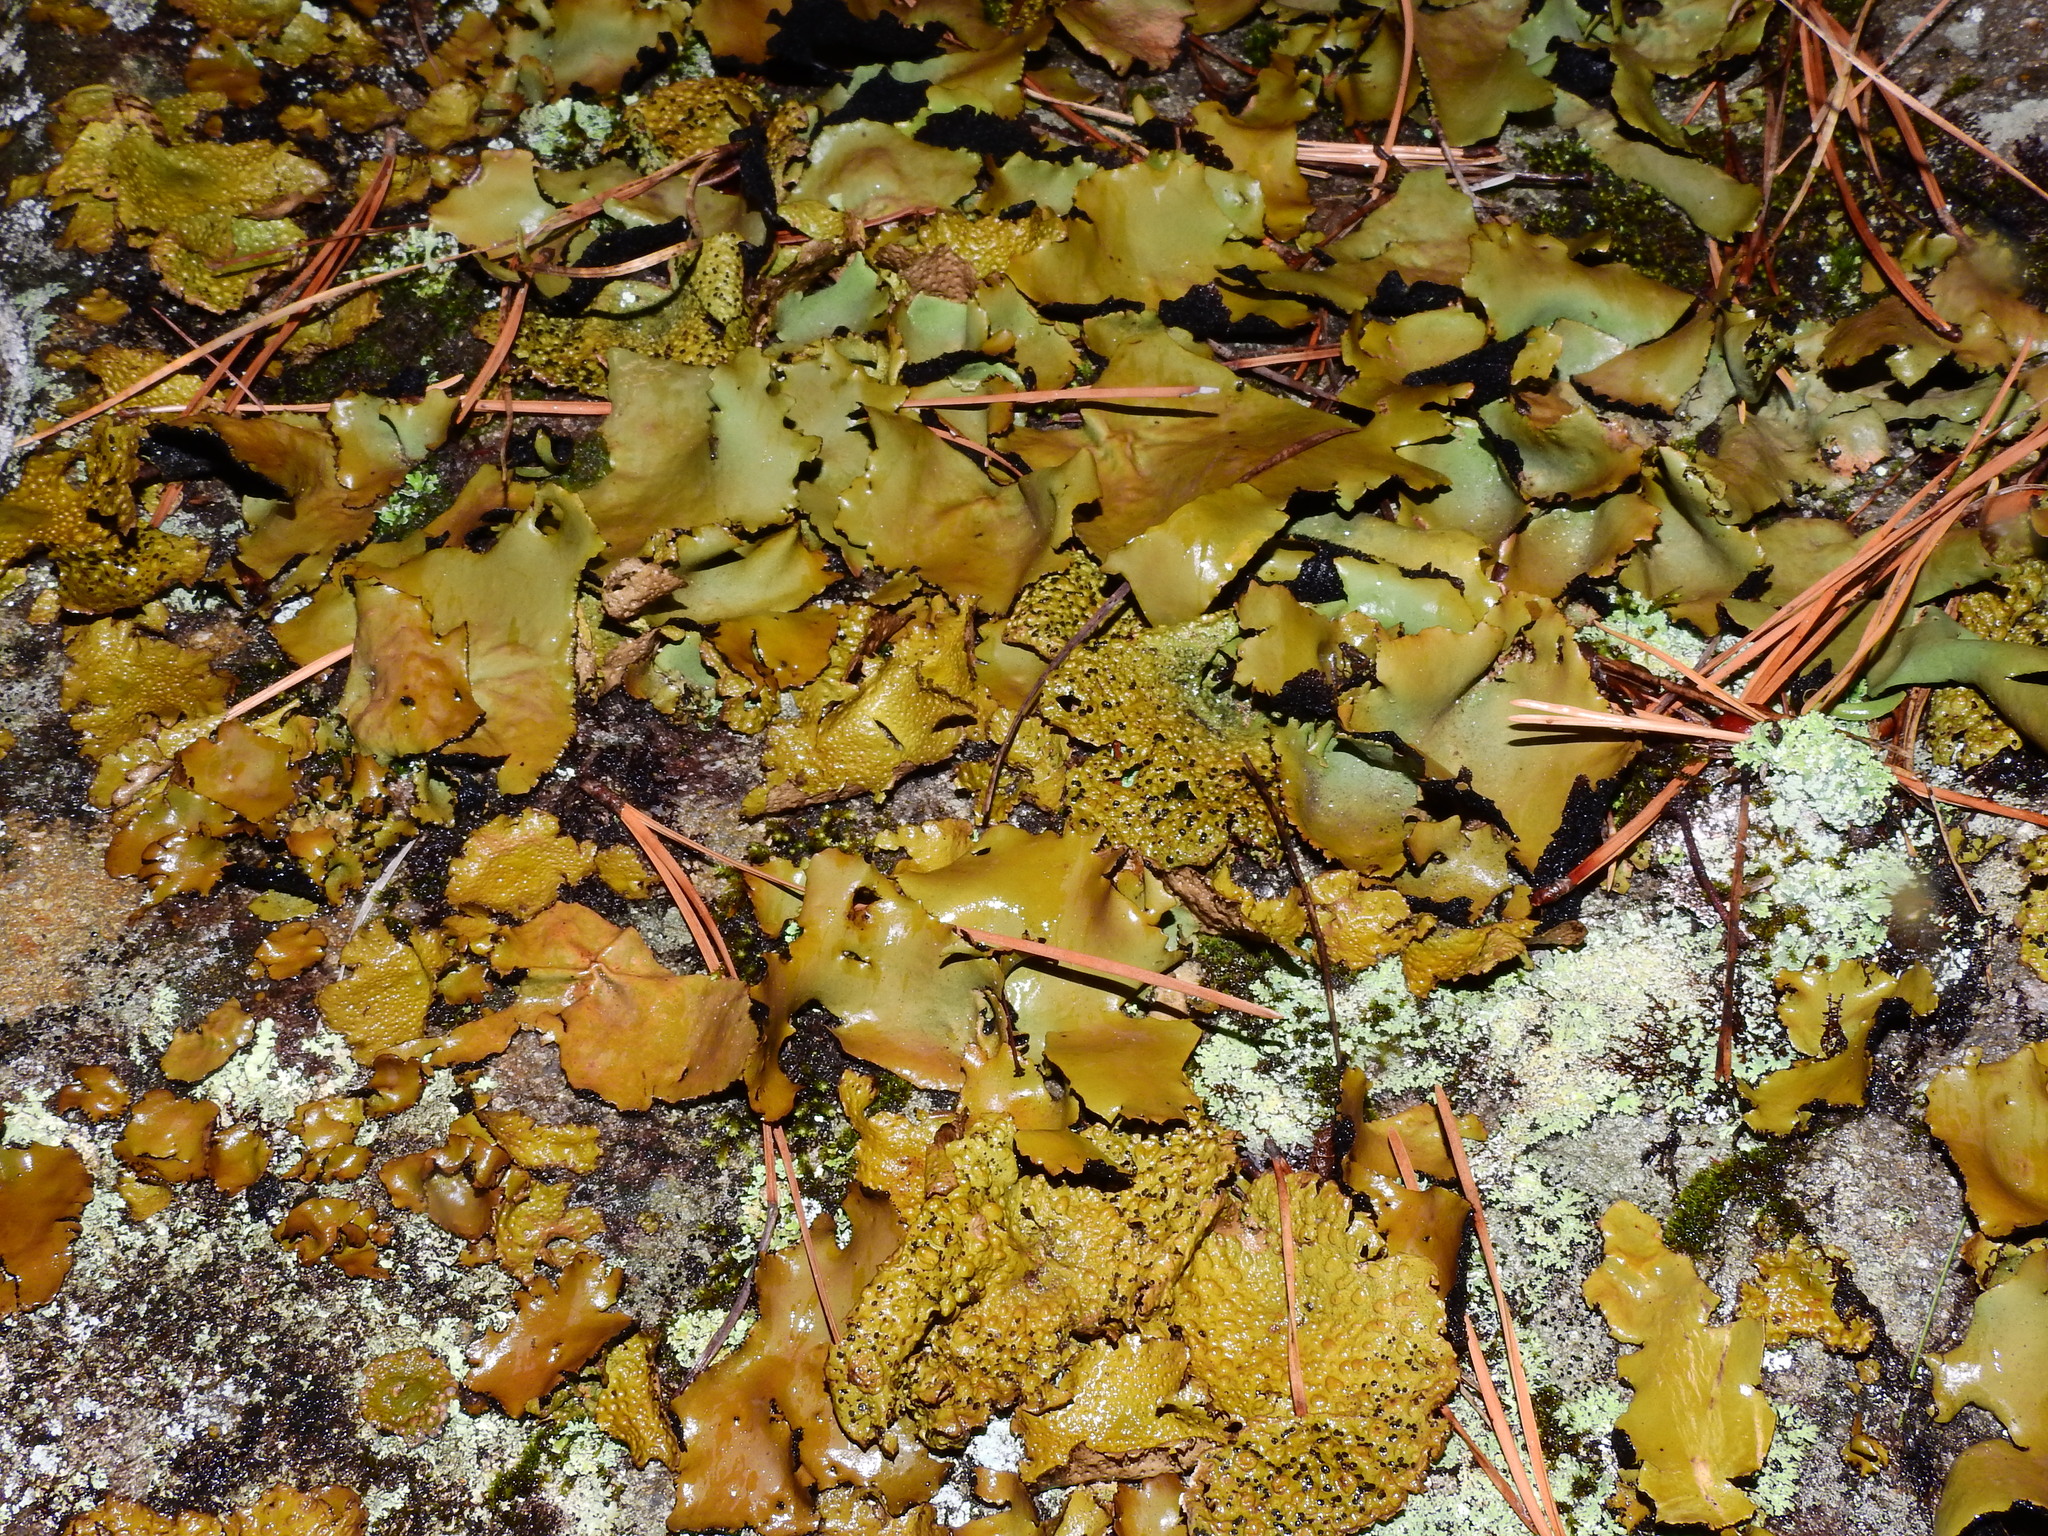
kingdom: Fungi
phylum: Ascomycota
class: Lecanoromycetes
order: Umbilicariales
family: Umbilicariaceae
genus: Umbilicaria
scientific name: Umbilicaria mammulata
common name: Smooth rock tripe
